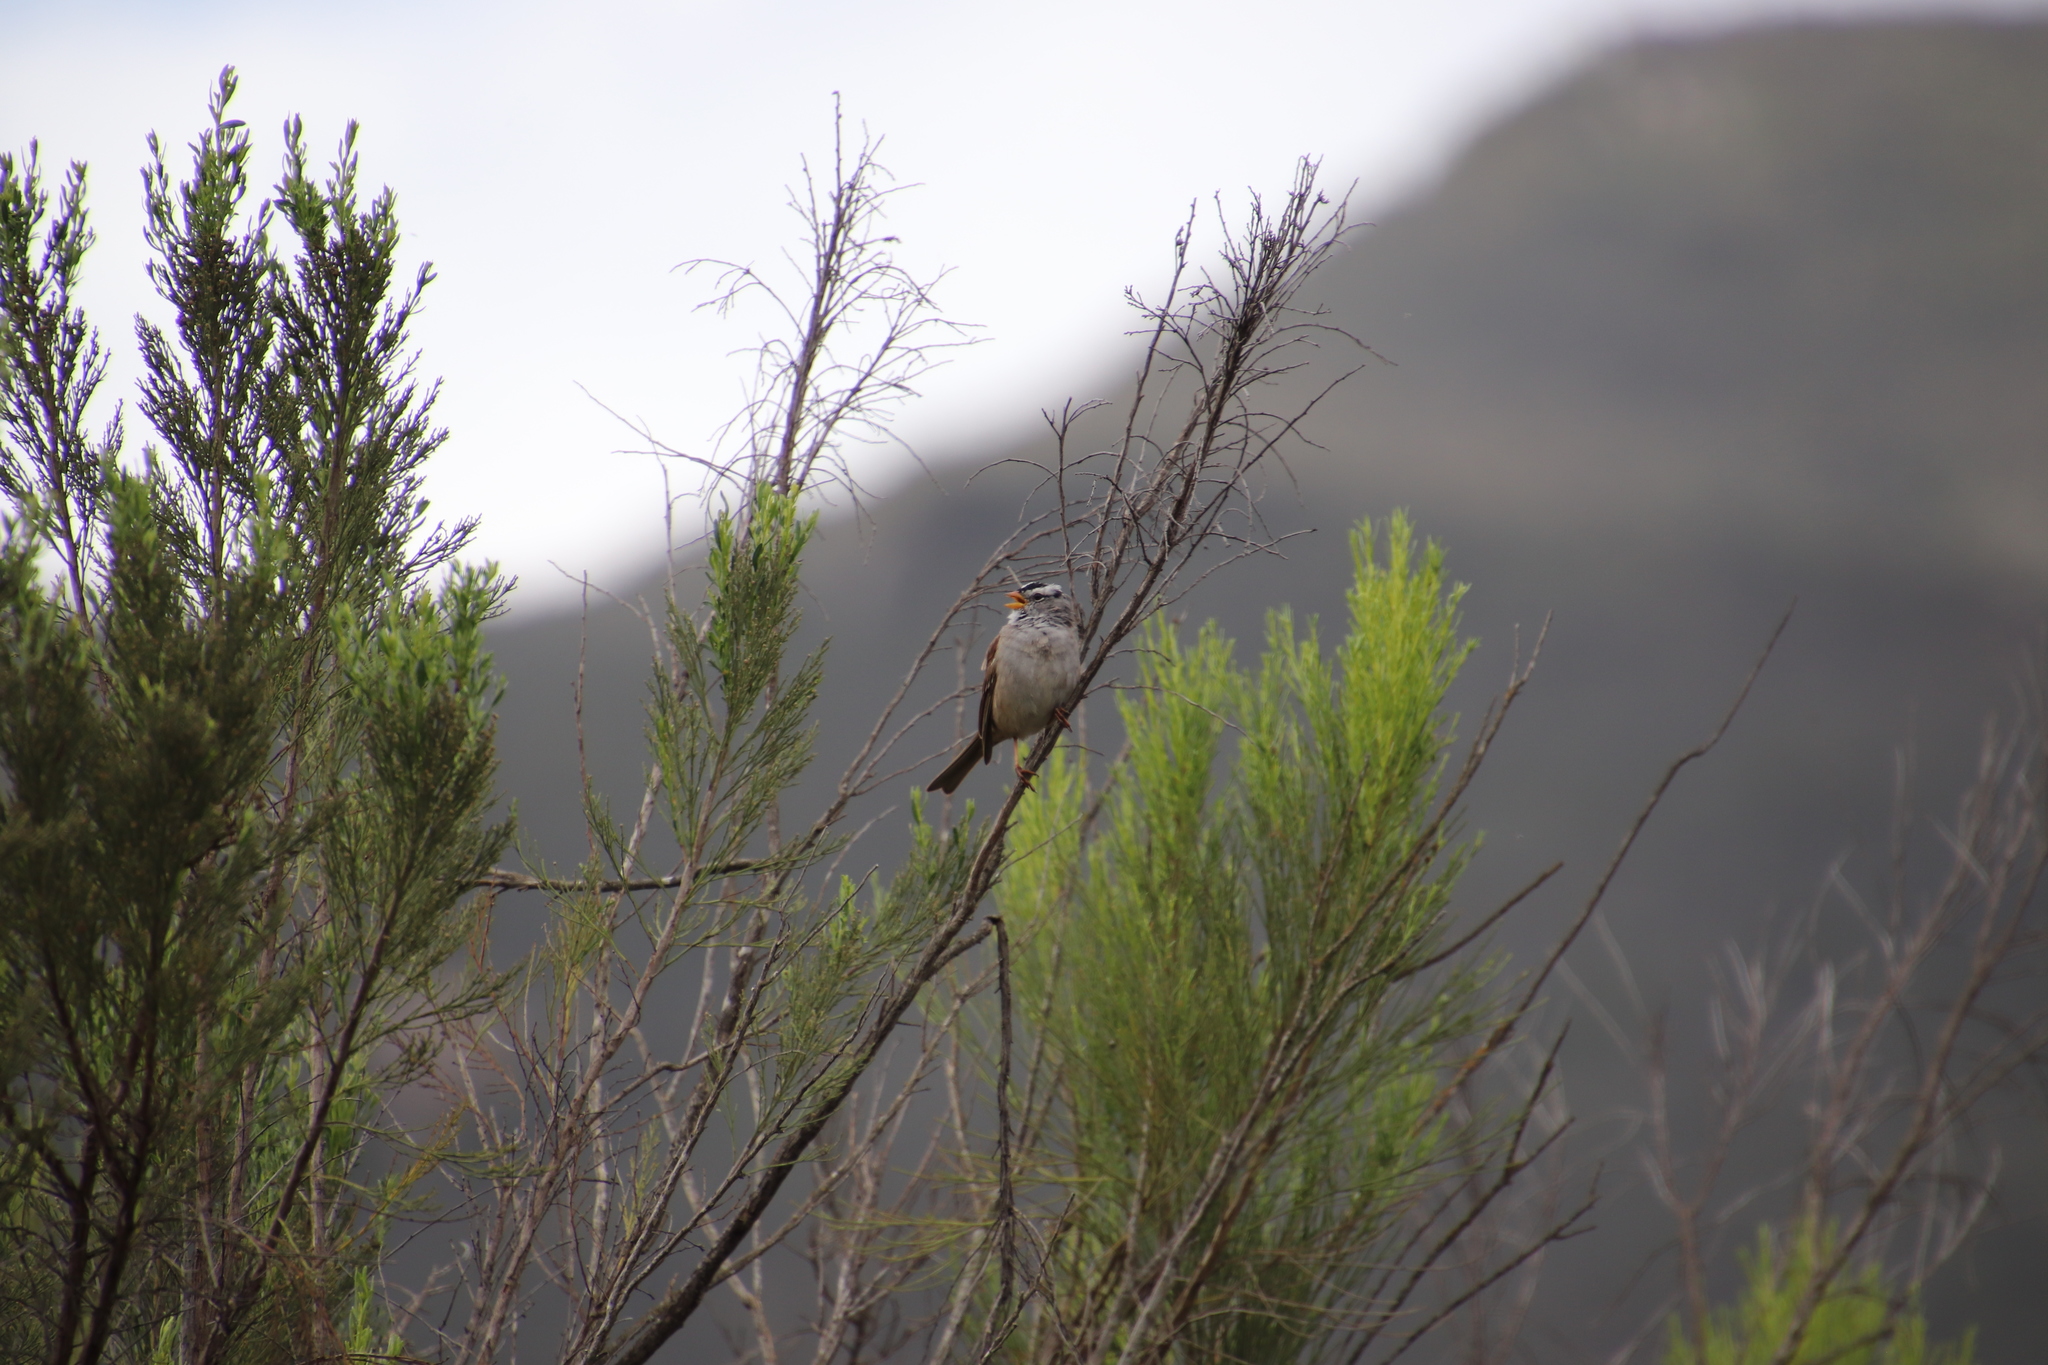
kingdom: Animalia
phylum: Chordata
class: Aves
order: Passeriformes
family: Passerellidae
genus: Zonotrichia
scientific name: Zonotrichia leucophrys
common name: White-crowned sparrow
